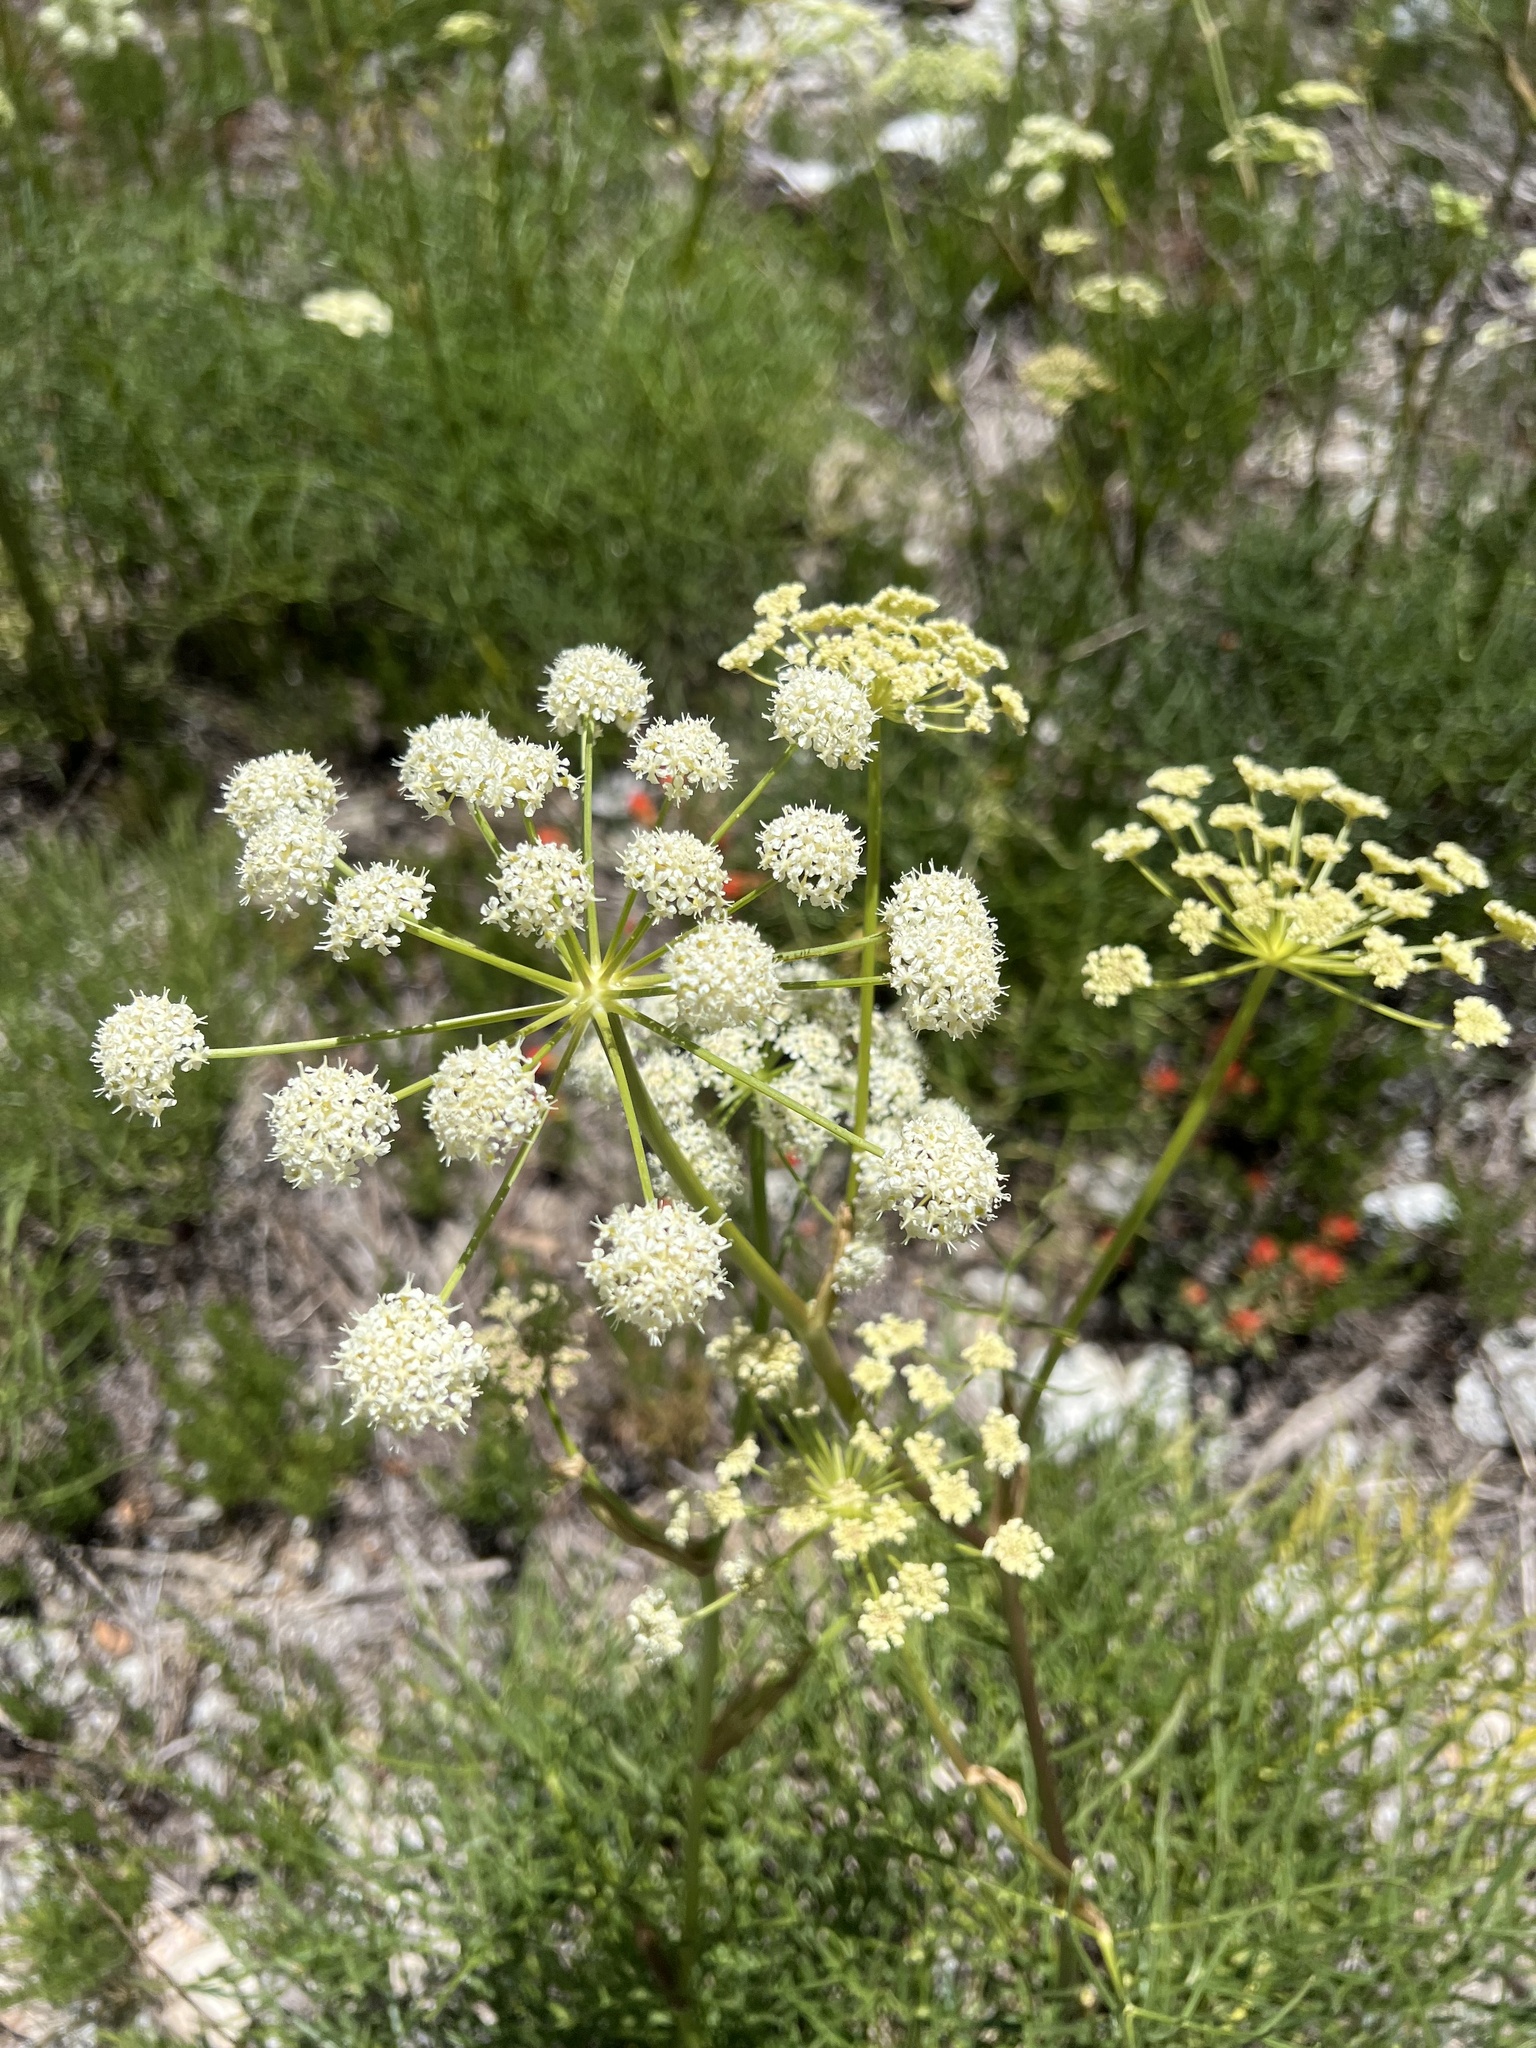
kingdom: Plantae
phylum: Tracheophyta
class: Magnoliopsida
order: Apiales
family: Apiaceae
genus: Angelica
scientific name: Angelica lineariloba
